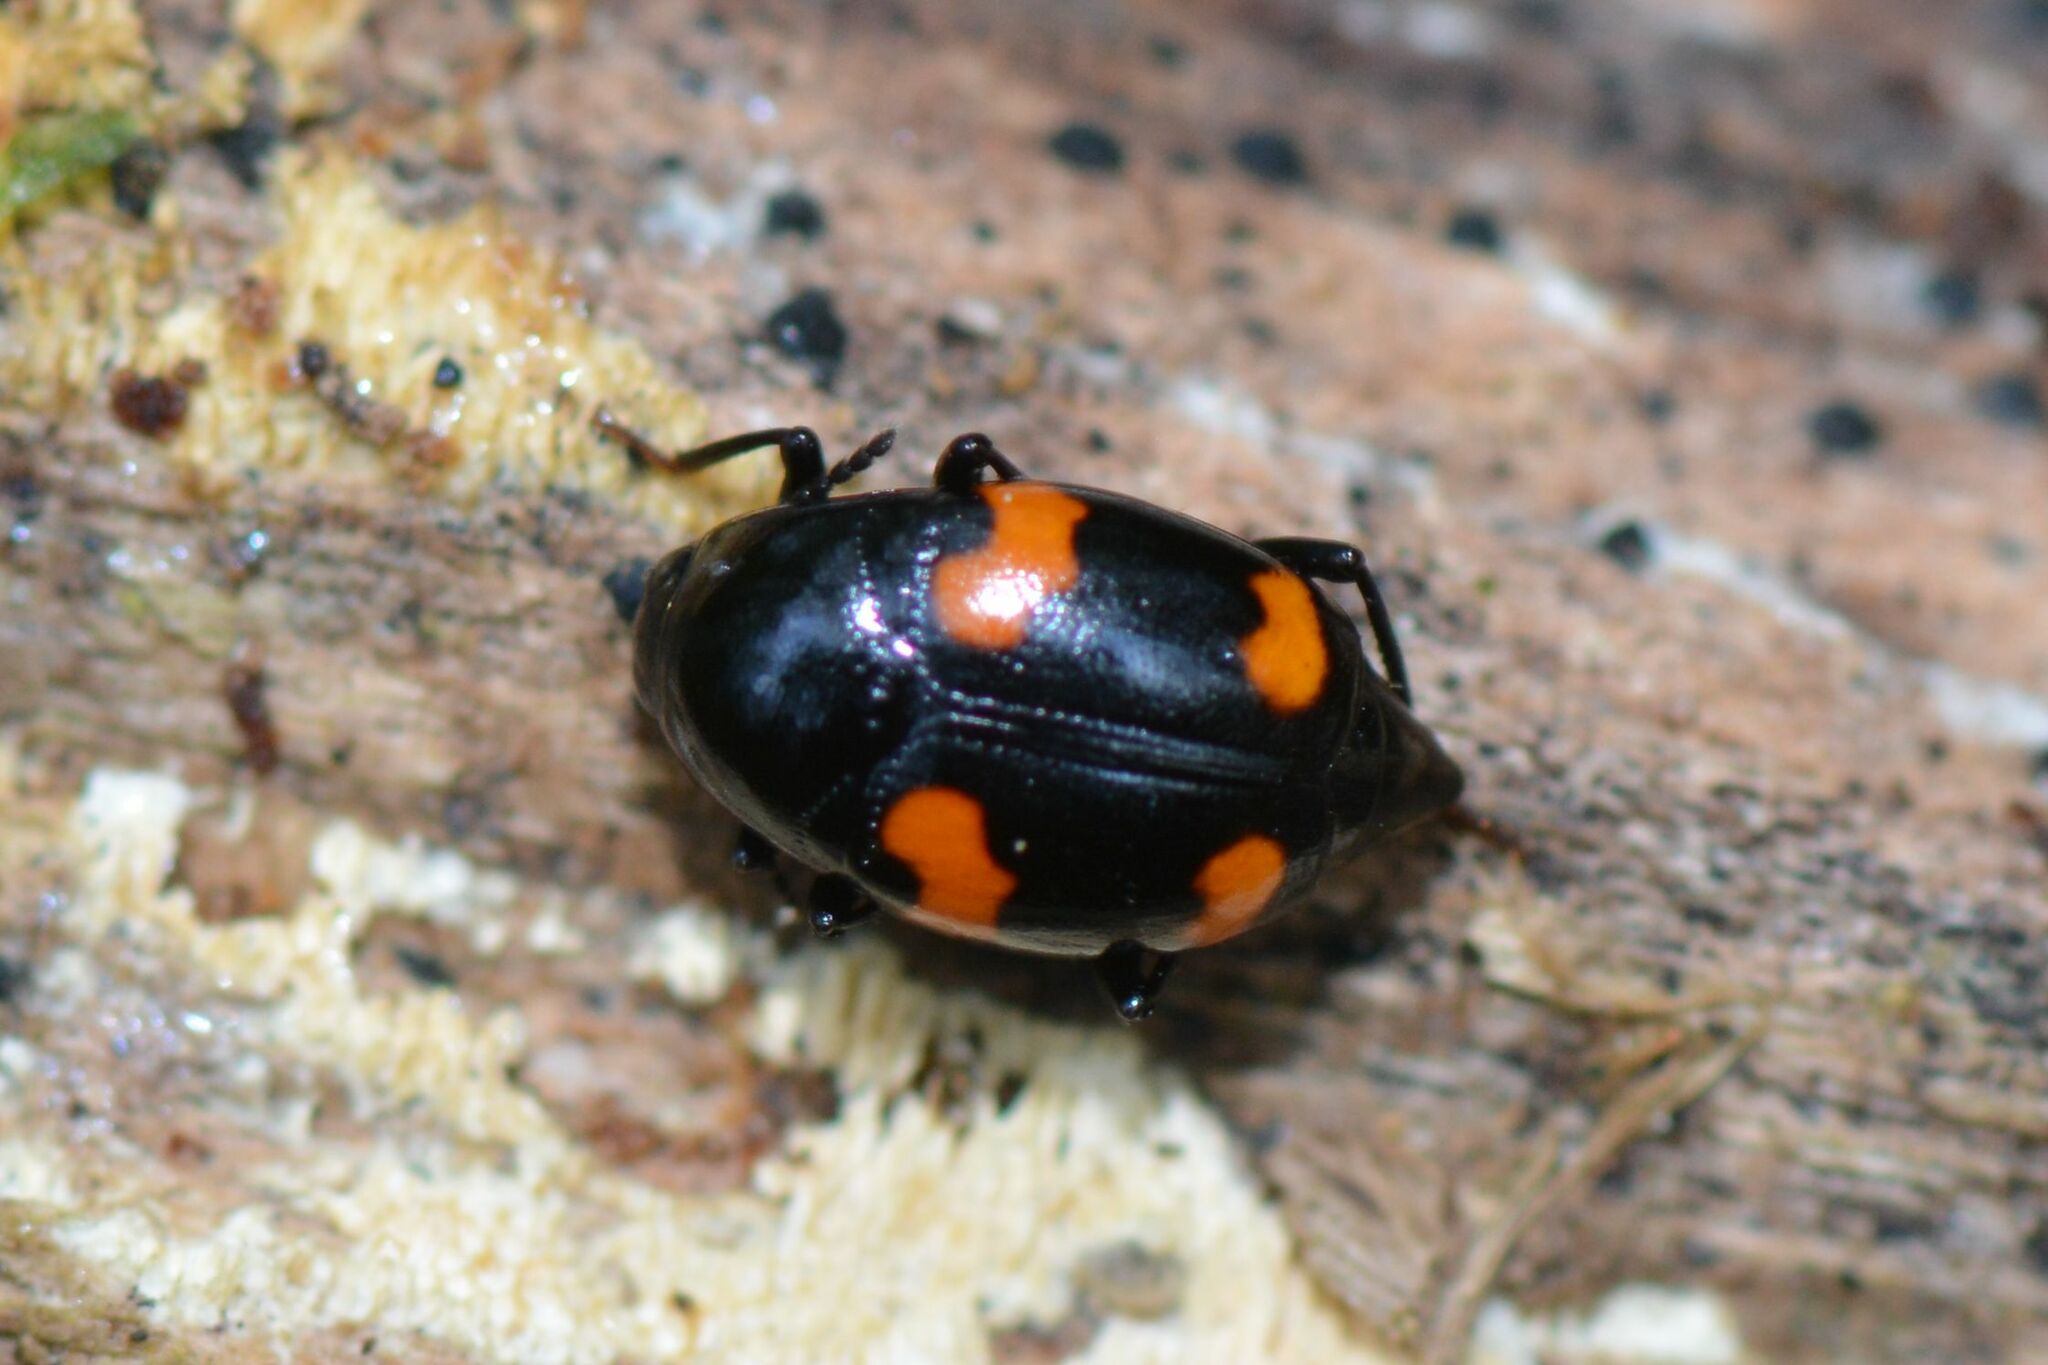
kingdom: Animalia
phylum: Arthropoda
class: Insecta
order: Coleoptera
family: Staphylinidae
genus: Scaphidium
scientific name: Scaphidium quadrimaculatum
